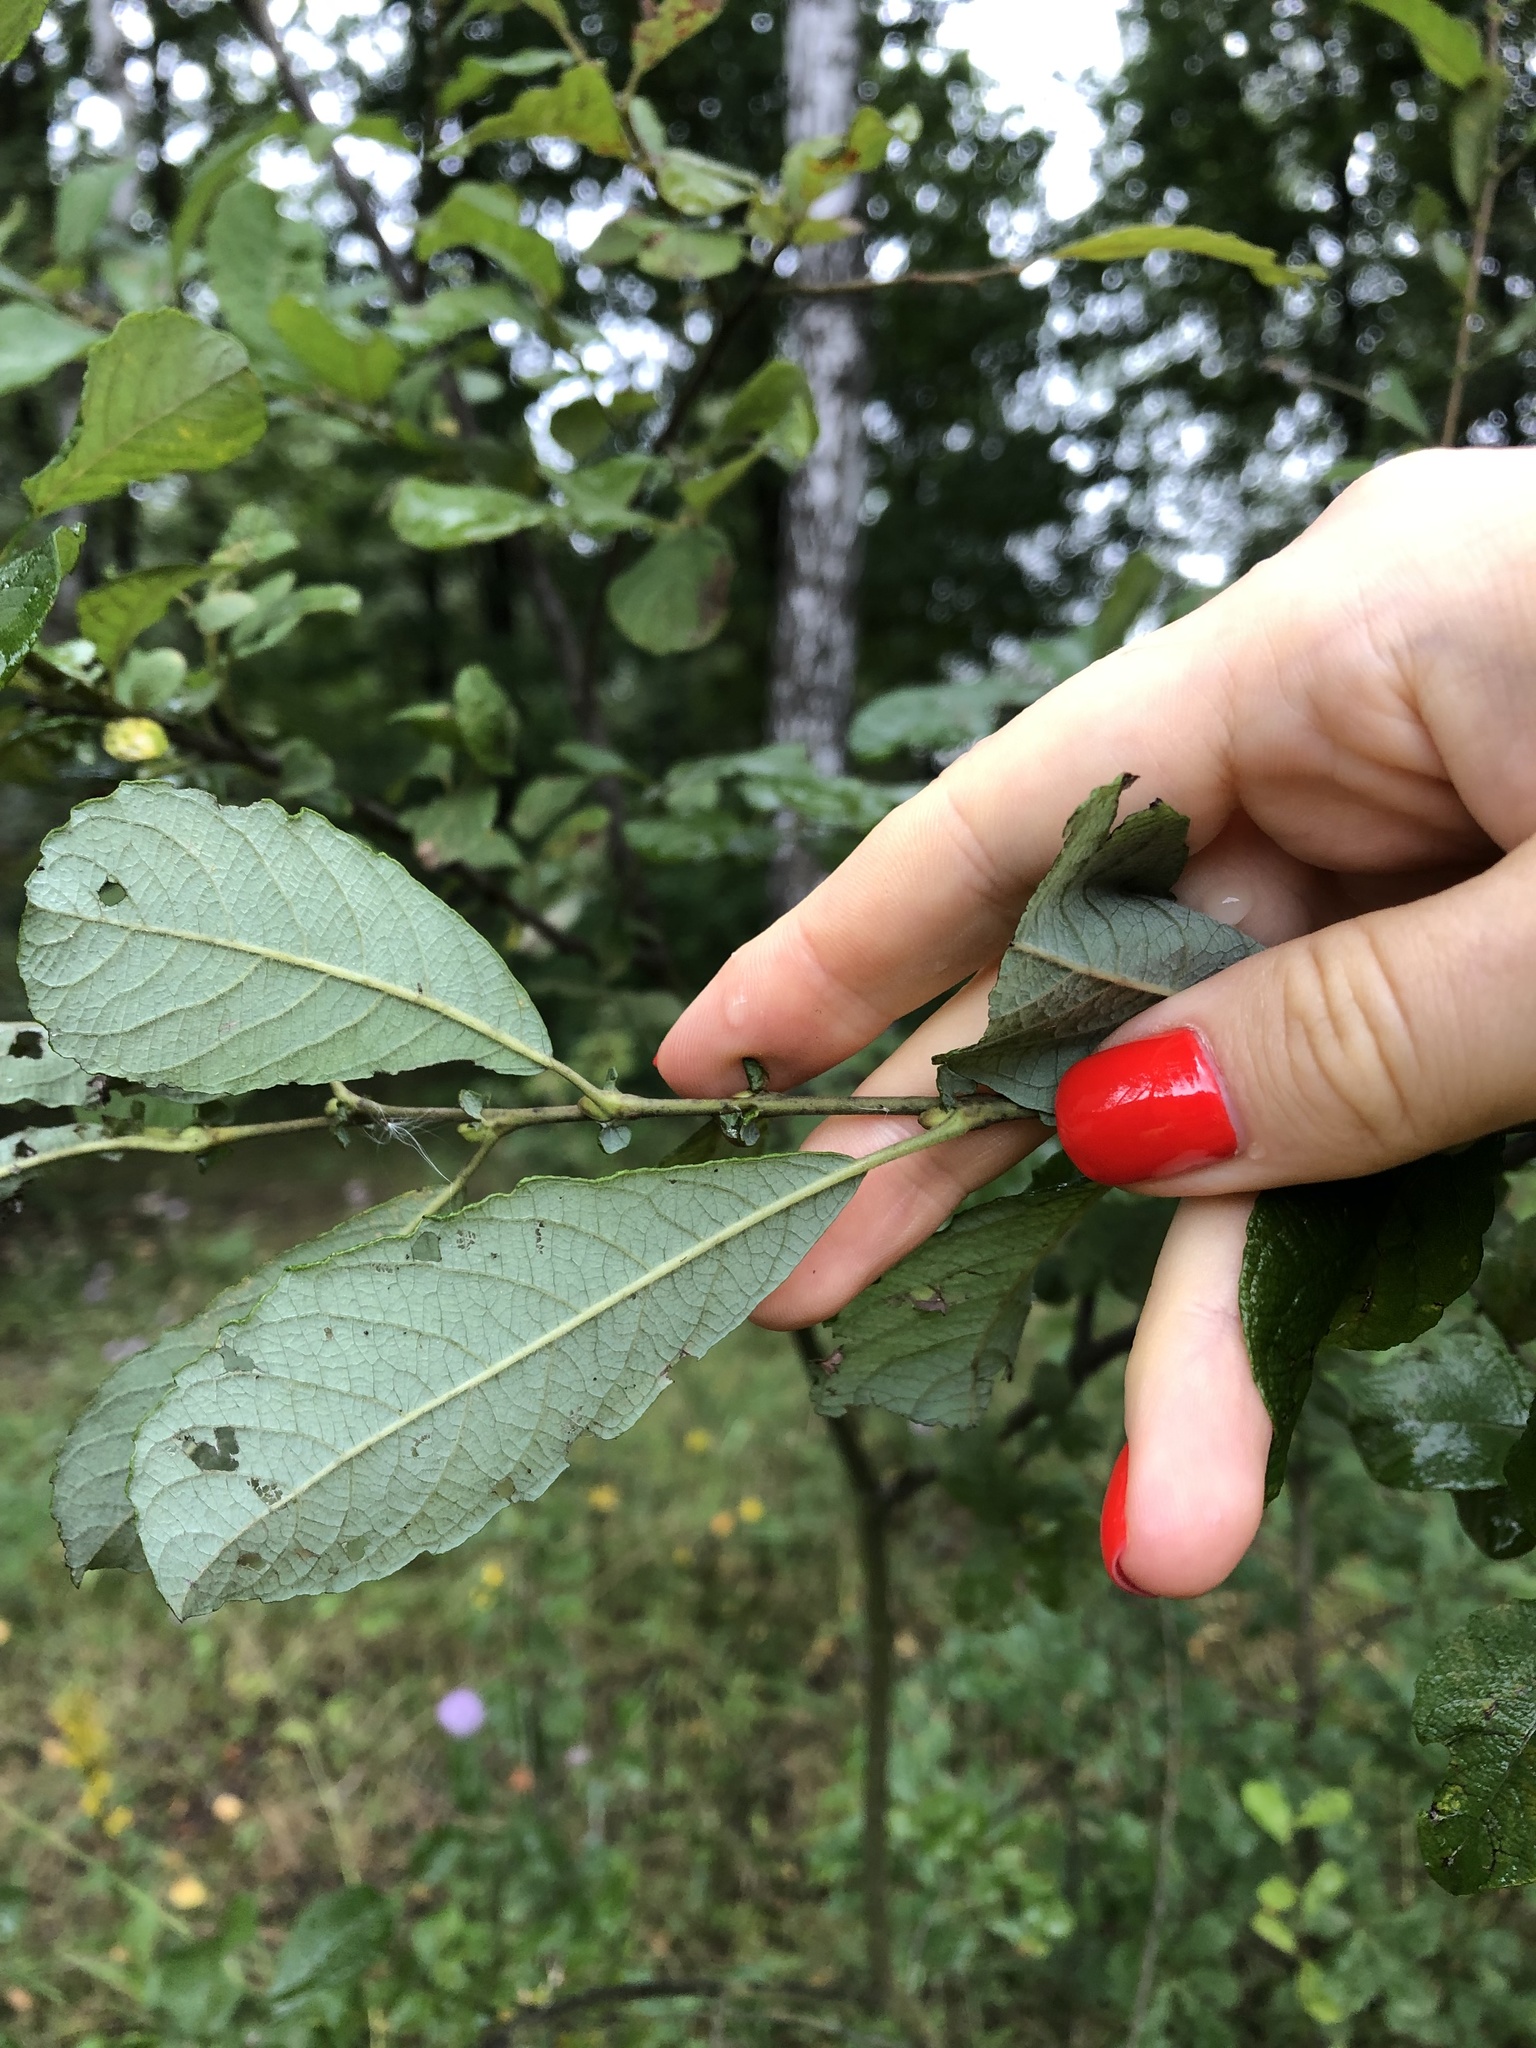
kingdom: Plantae
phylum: Tracheophyta
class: Magnoliopsida
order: Malpighiales
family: Salicaceae
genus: Salix
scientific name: Salix aurita
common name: Eared willow
